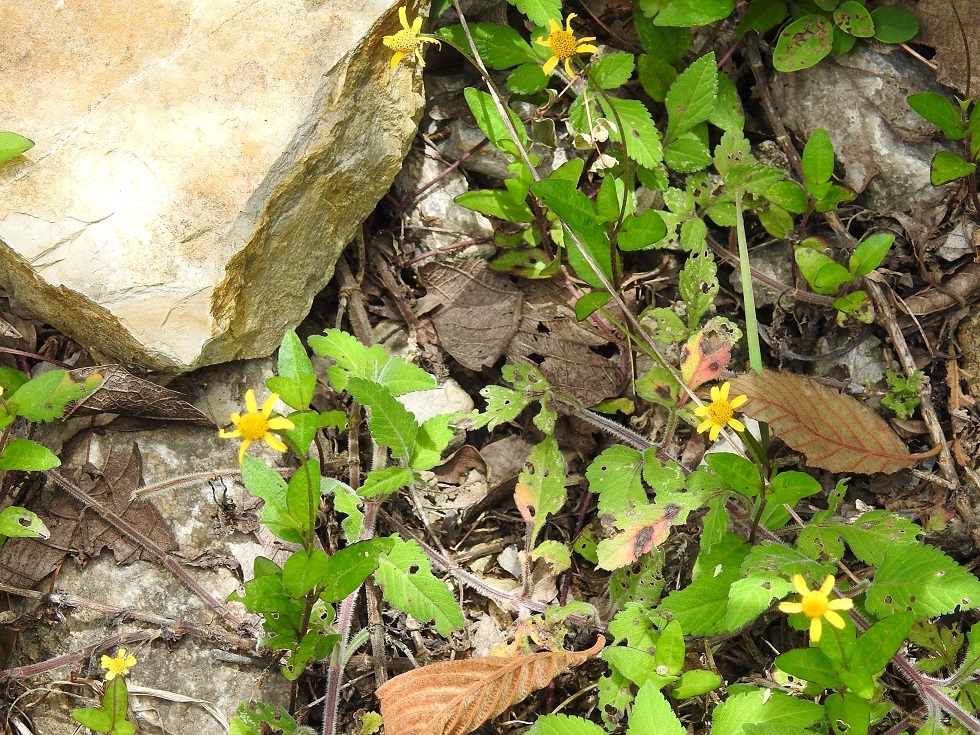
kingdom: Plantae
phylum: Tracheophyta
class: Magnoliopsida
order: Asterales
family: Asteraceae
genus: Acmella
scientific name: Acmella repens
